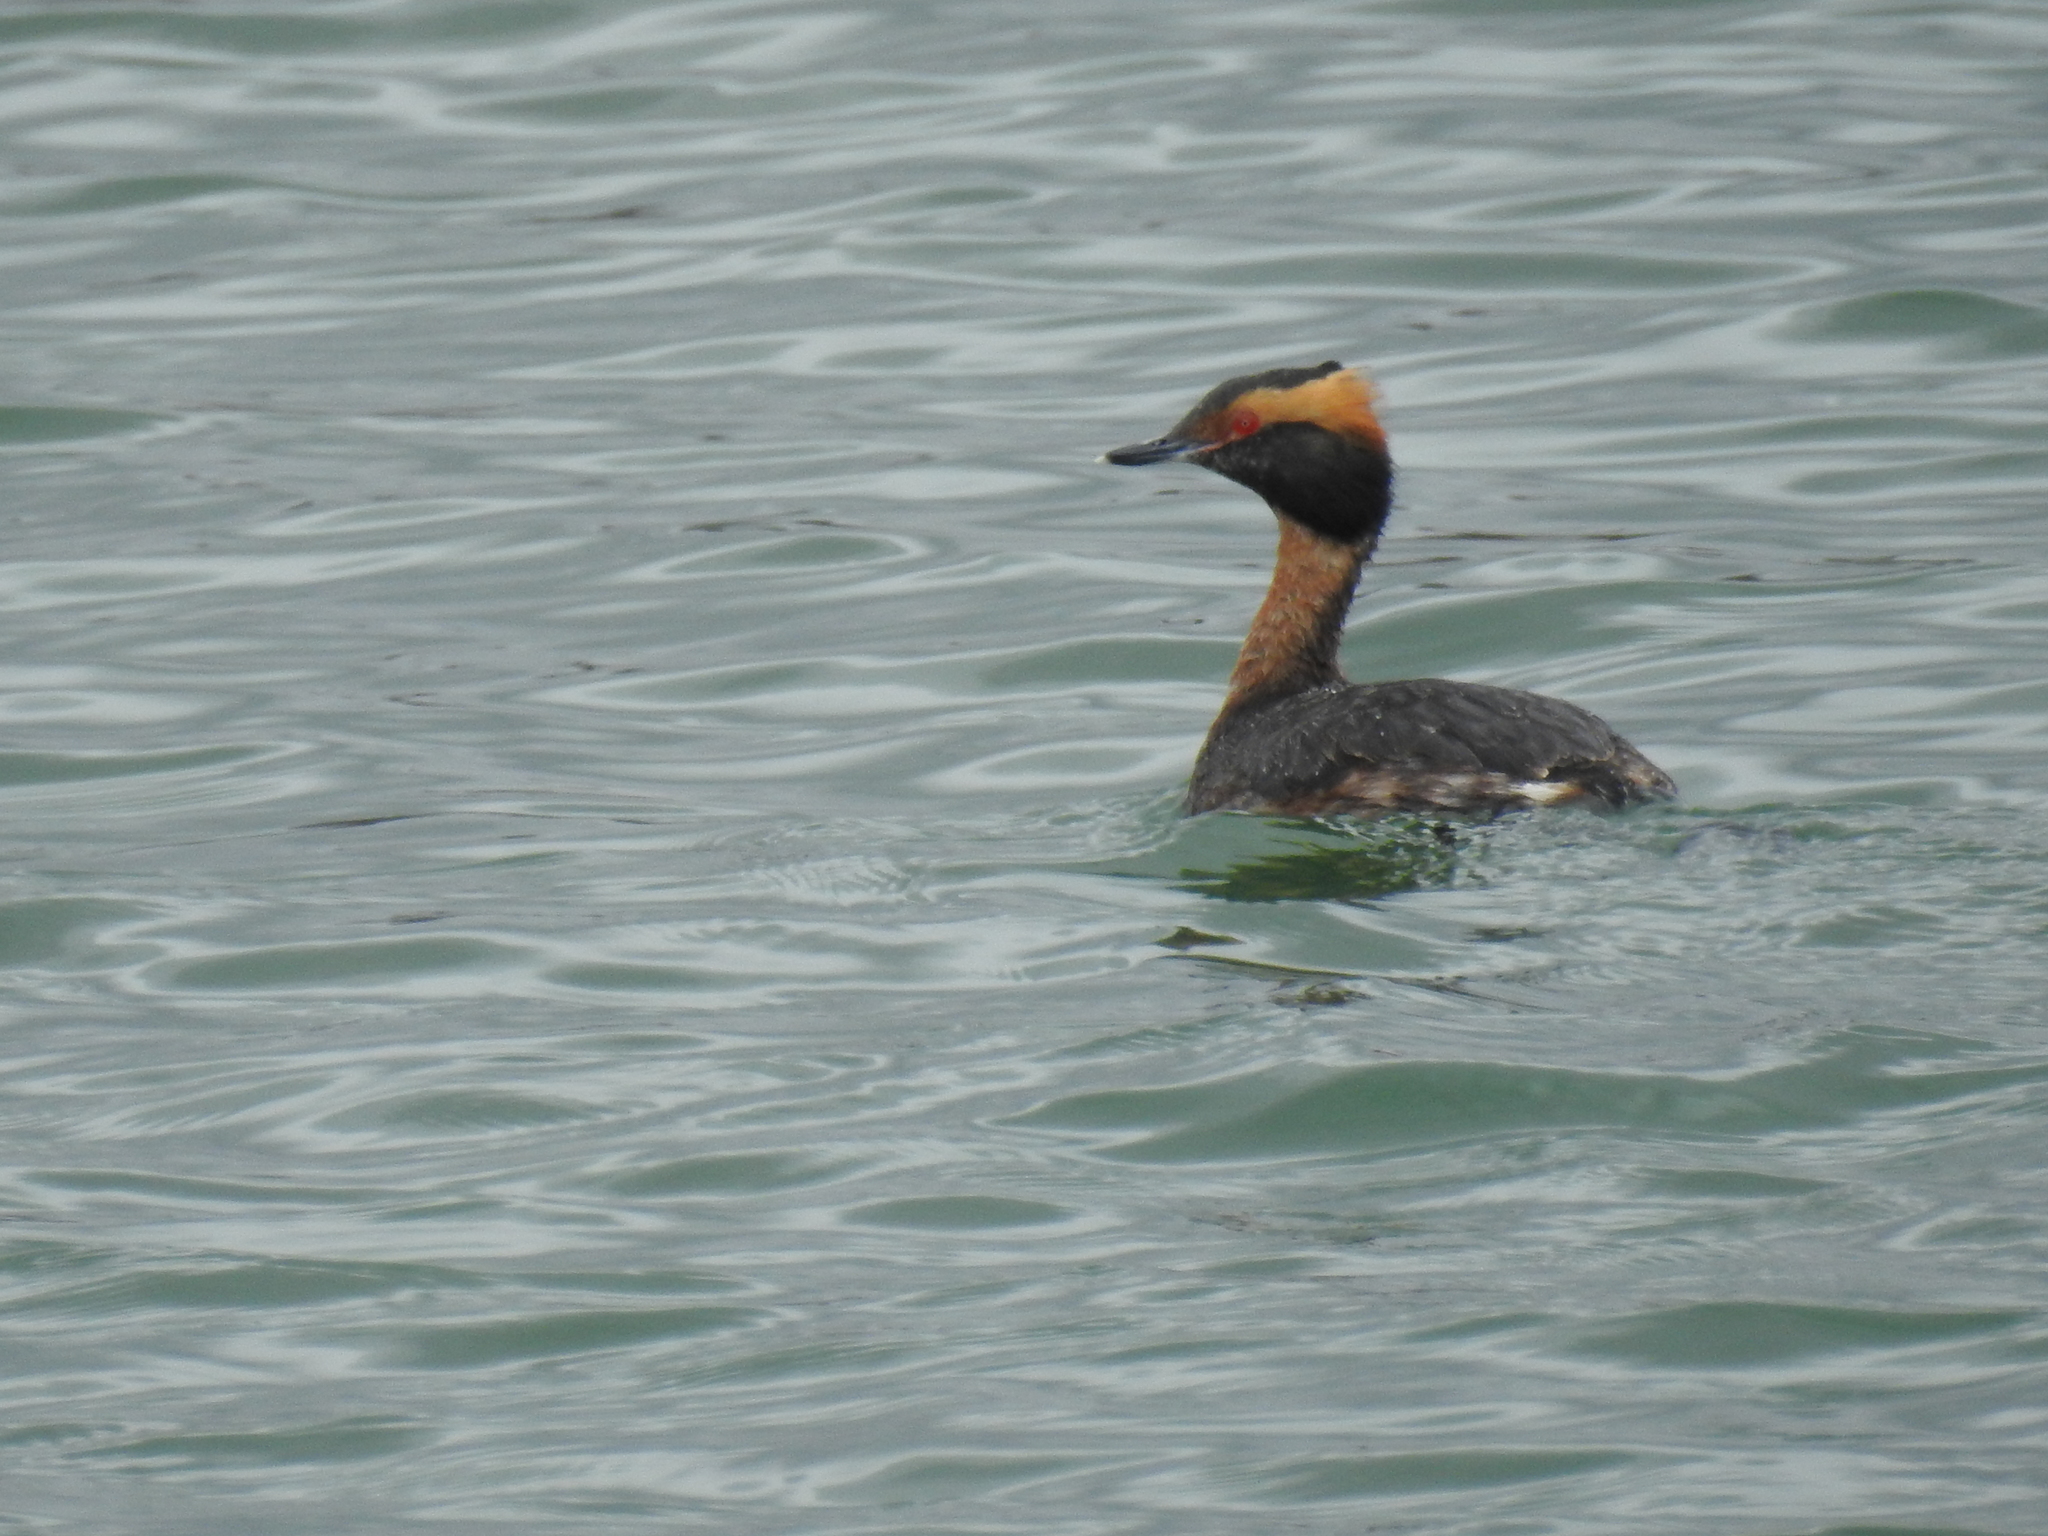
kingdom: Animalia
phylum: Chordata
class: Aves
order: Podicipediformes
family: Podicipedidae
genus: Podiceps
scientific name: Podiceps auritus
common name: Horned grebe
